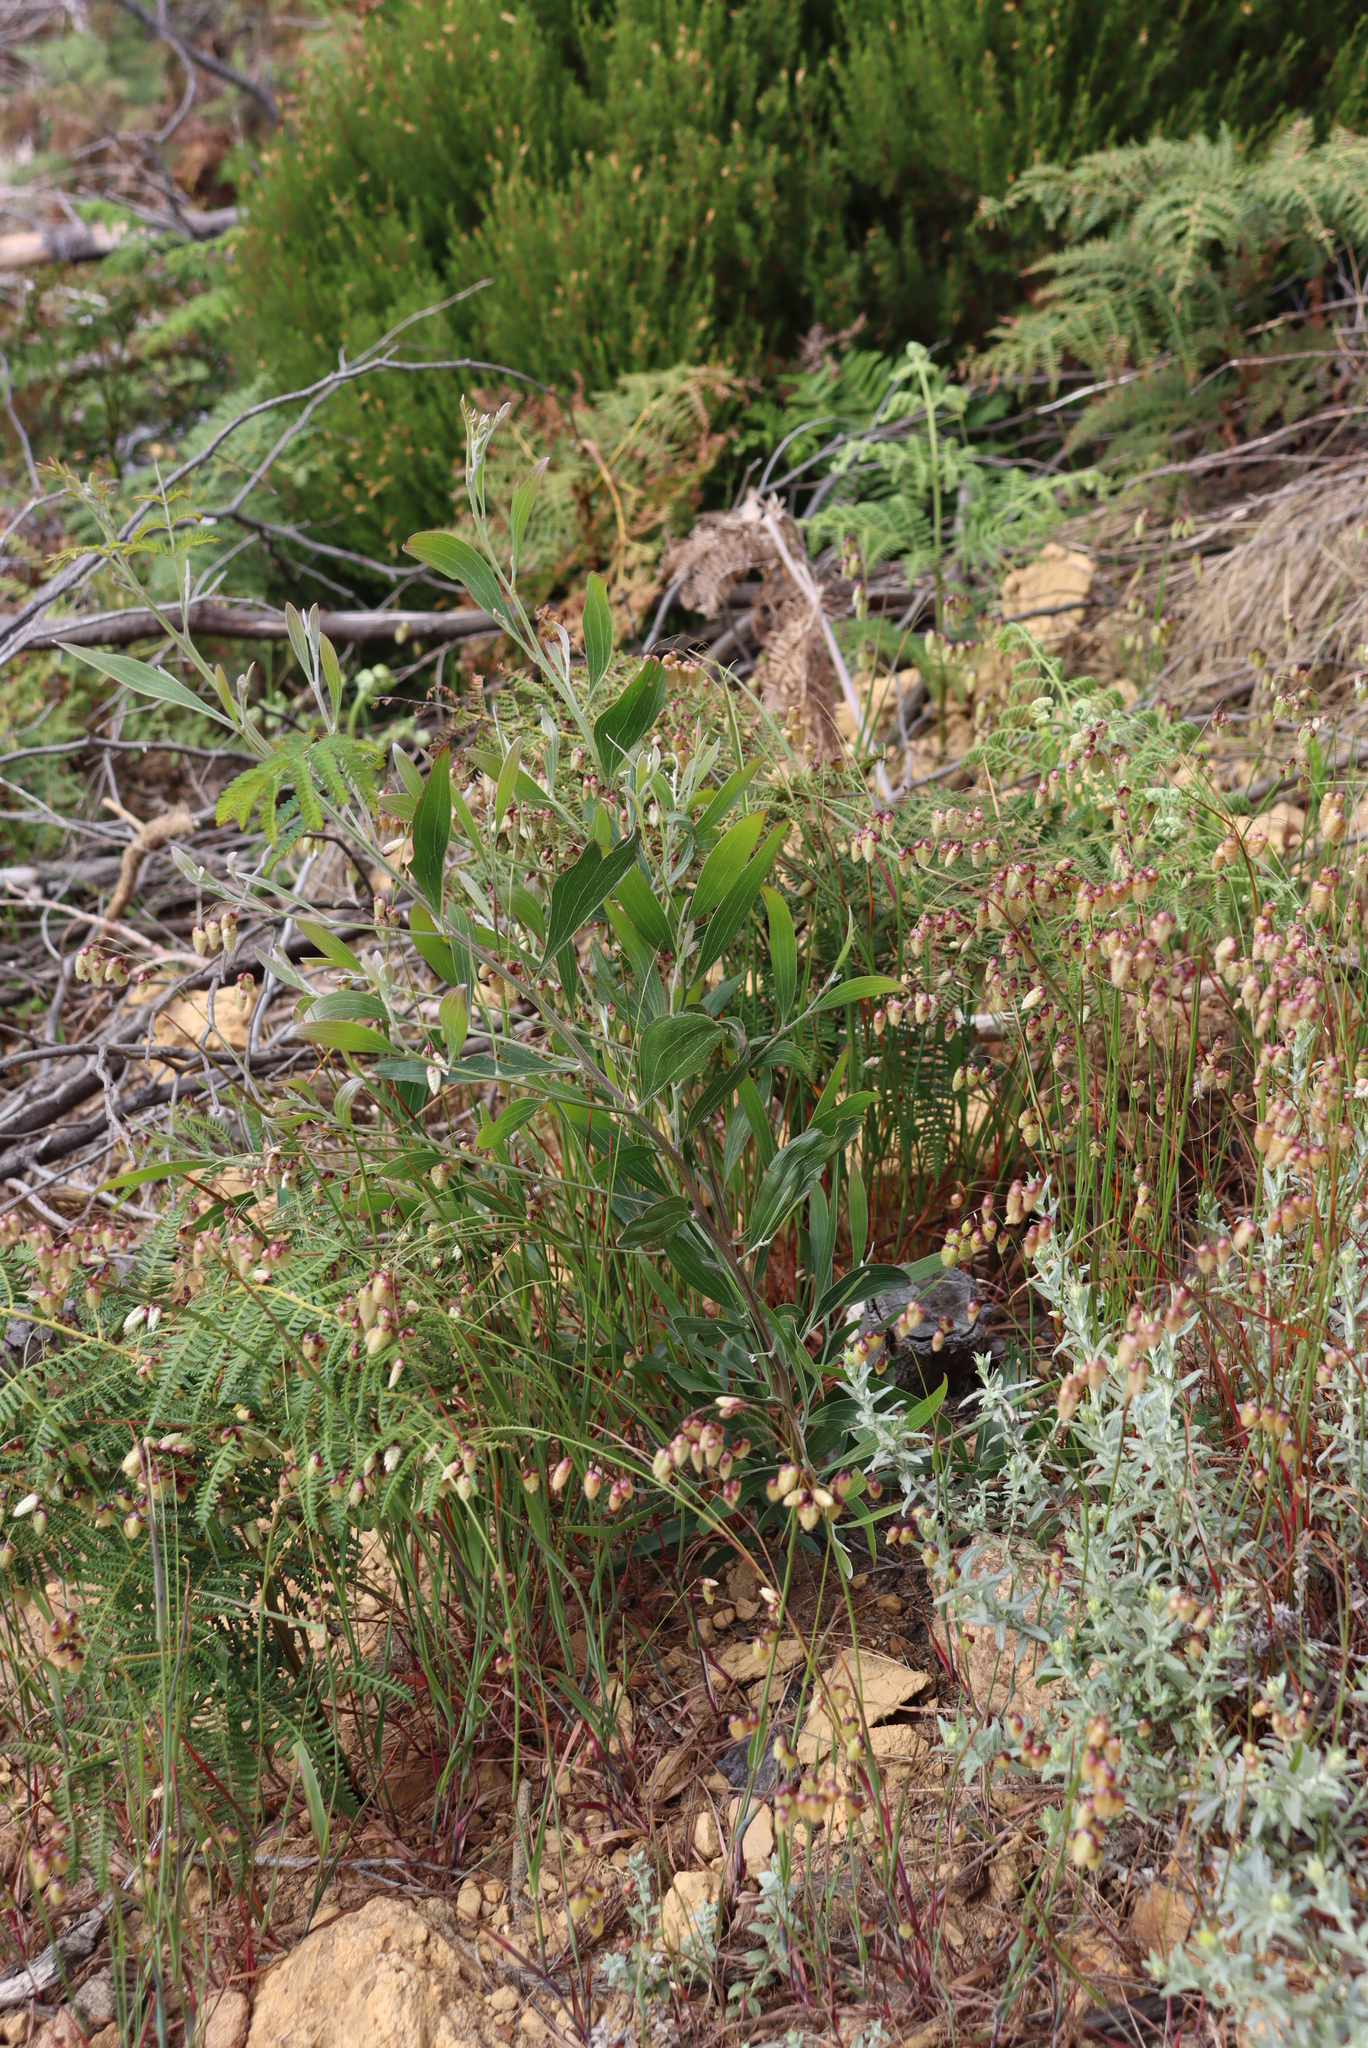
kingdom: Plantae
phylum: Tracheophyta
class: Magnoliopsida
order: Fabales
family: Fabaceae
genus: Acacia
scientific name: Acacia melanoxylon
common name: Blackwood
